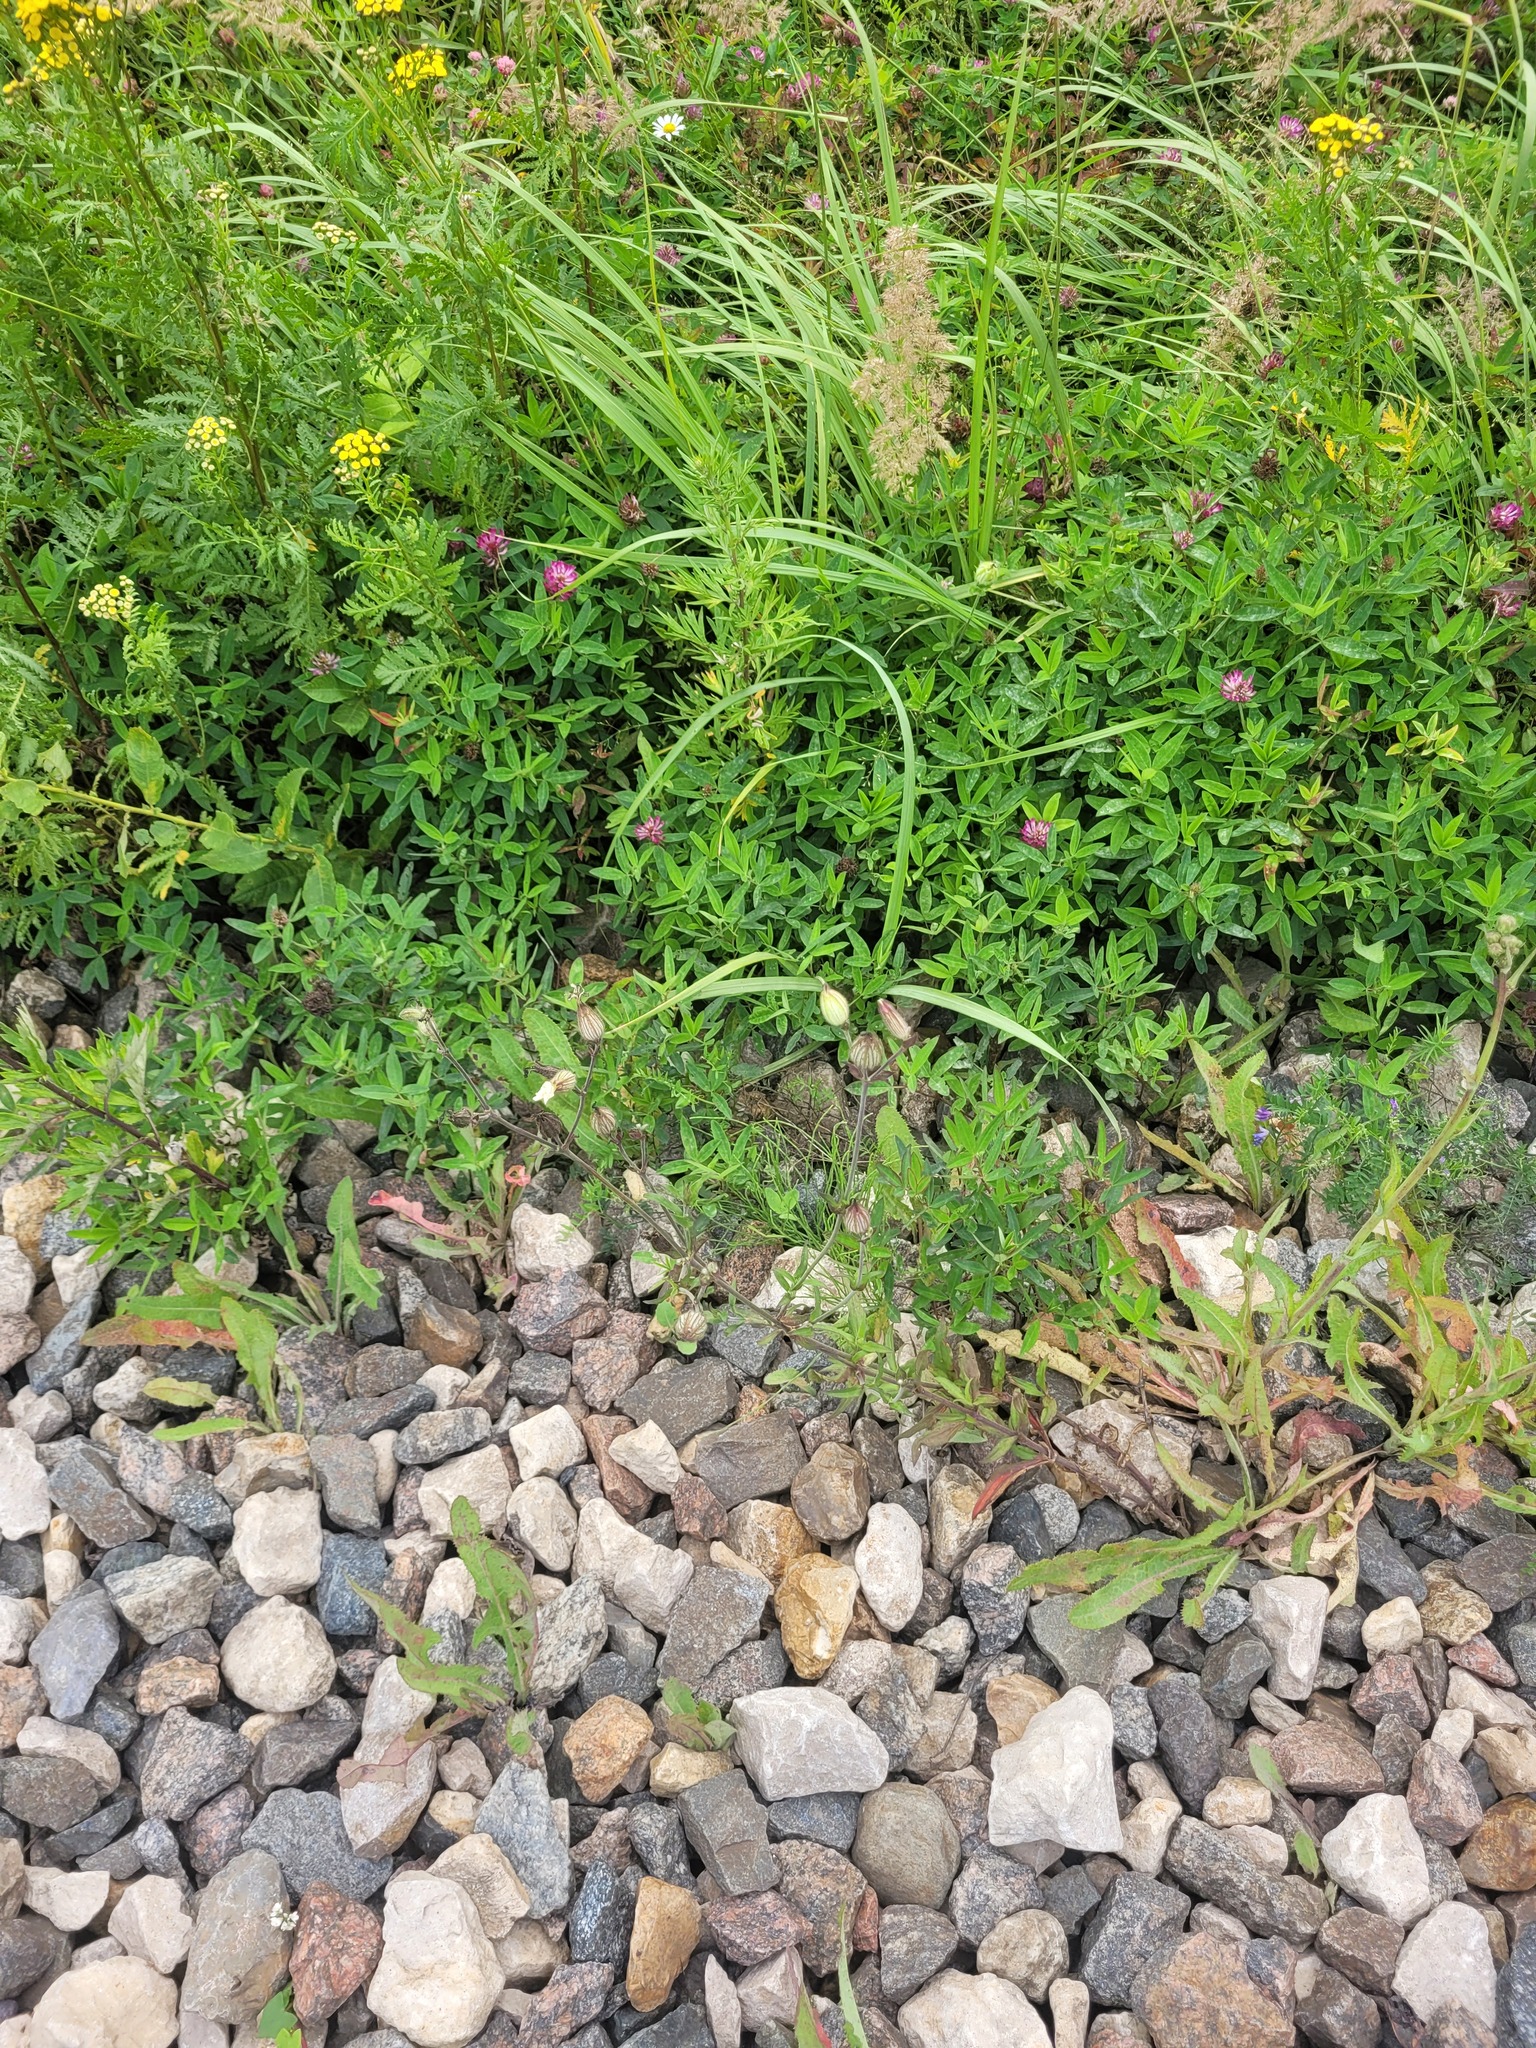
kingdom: Plantae
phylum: Tracheophyta
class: Magnoliopsida
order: Fabales
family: Fabaceae
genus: Trifolium
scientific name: Trifolium medium
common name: Zigzag clover
